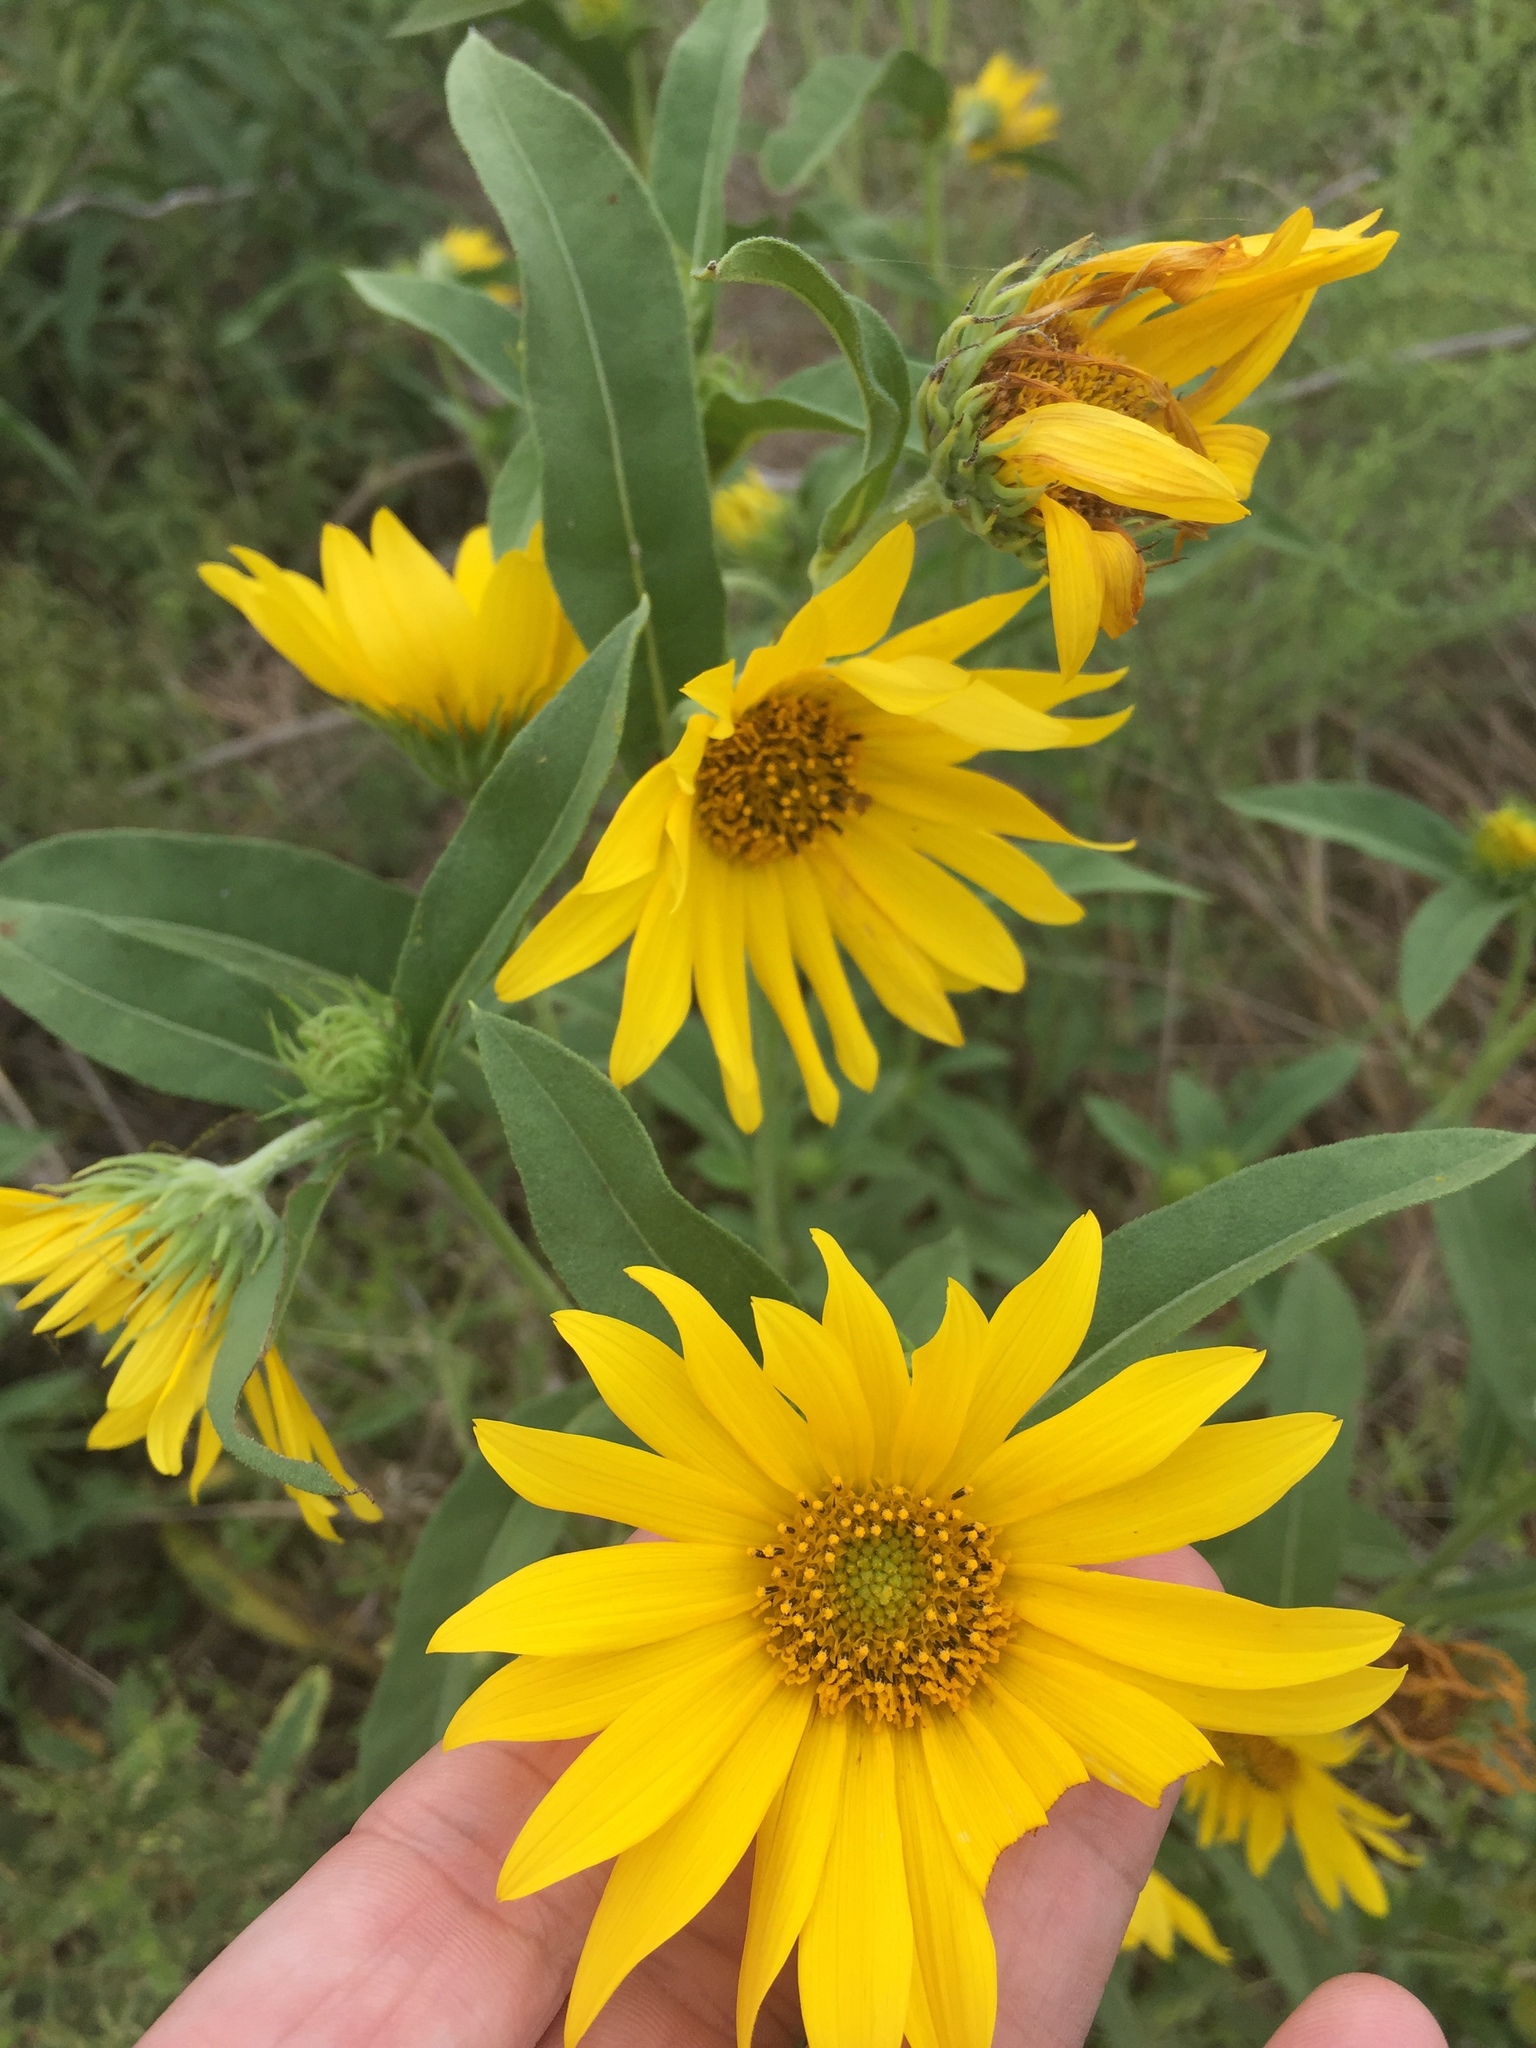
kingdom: Plantae
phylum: Tracheophyta
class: Magnoliopsida
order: Asterales
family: Asteraceae
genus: Helianthus
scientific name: Helianthus maximiliani
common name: Maximilian's sunflower
